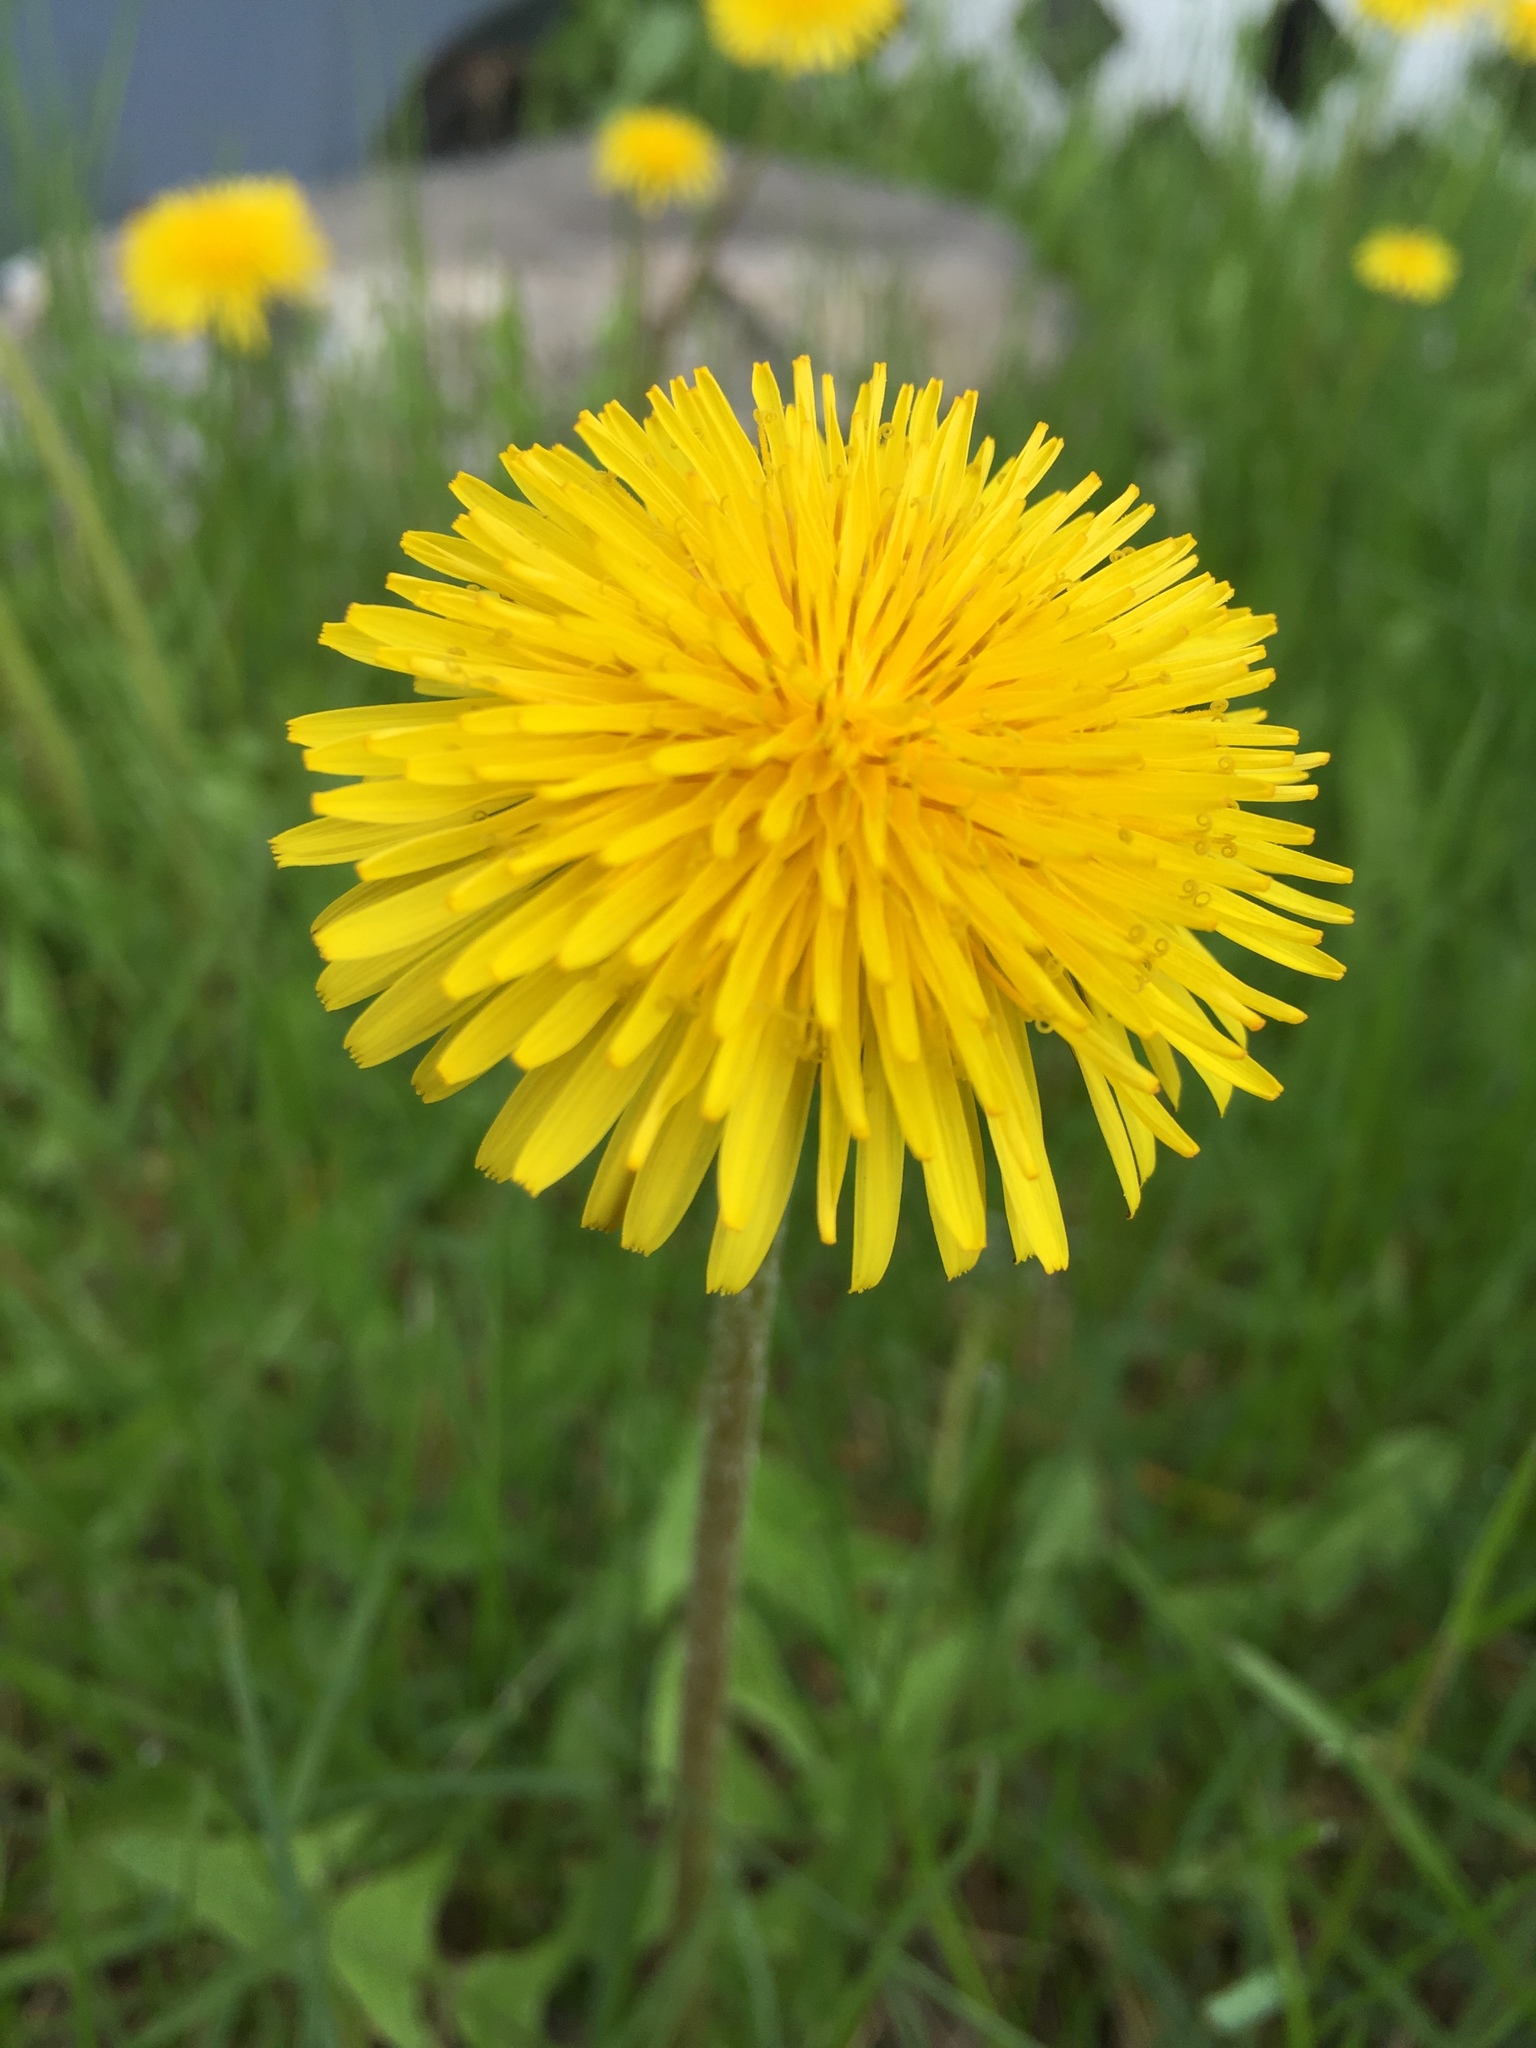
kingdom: Plantae
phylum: Tracheophyta
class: Magnoliopsida
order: Asterales
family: Asteraceae
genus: Taraxacum
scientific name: Taraxacum officinale
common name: Common dandelion
